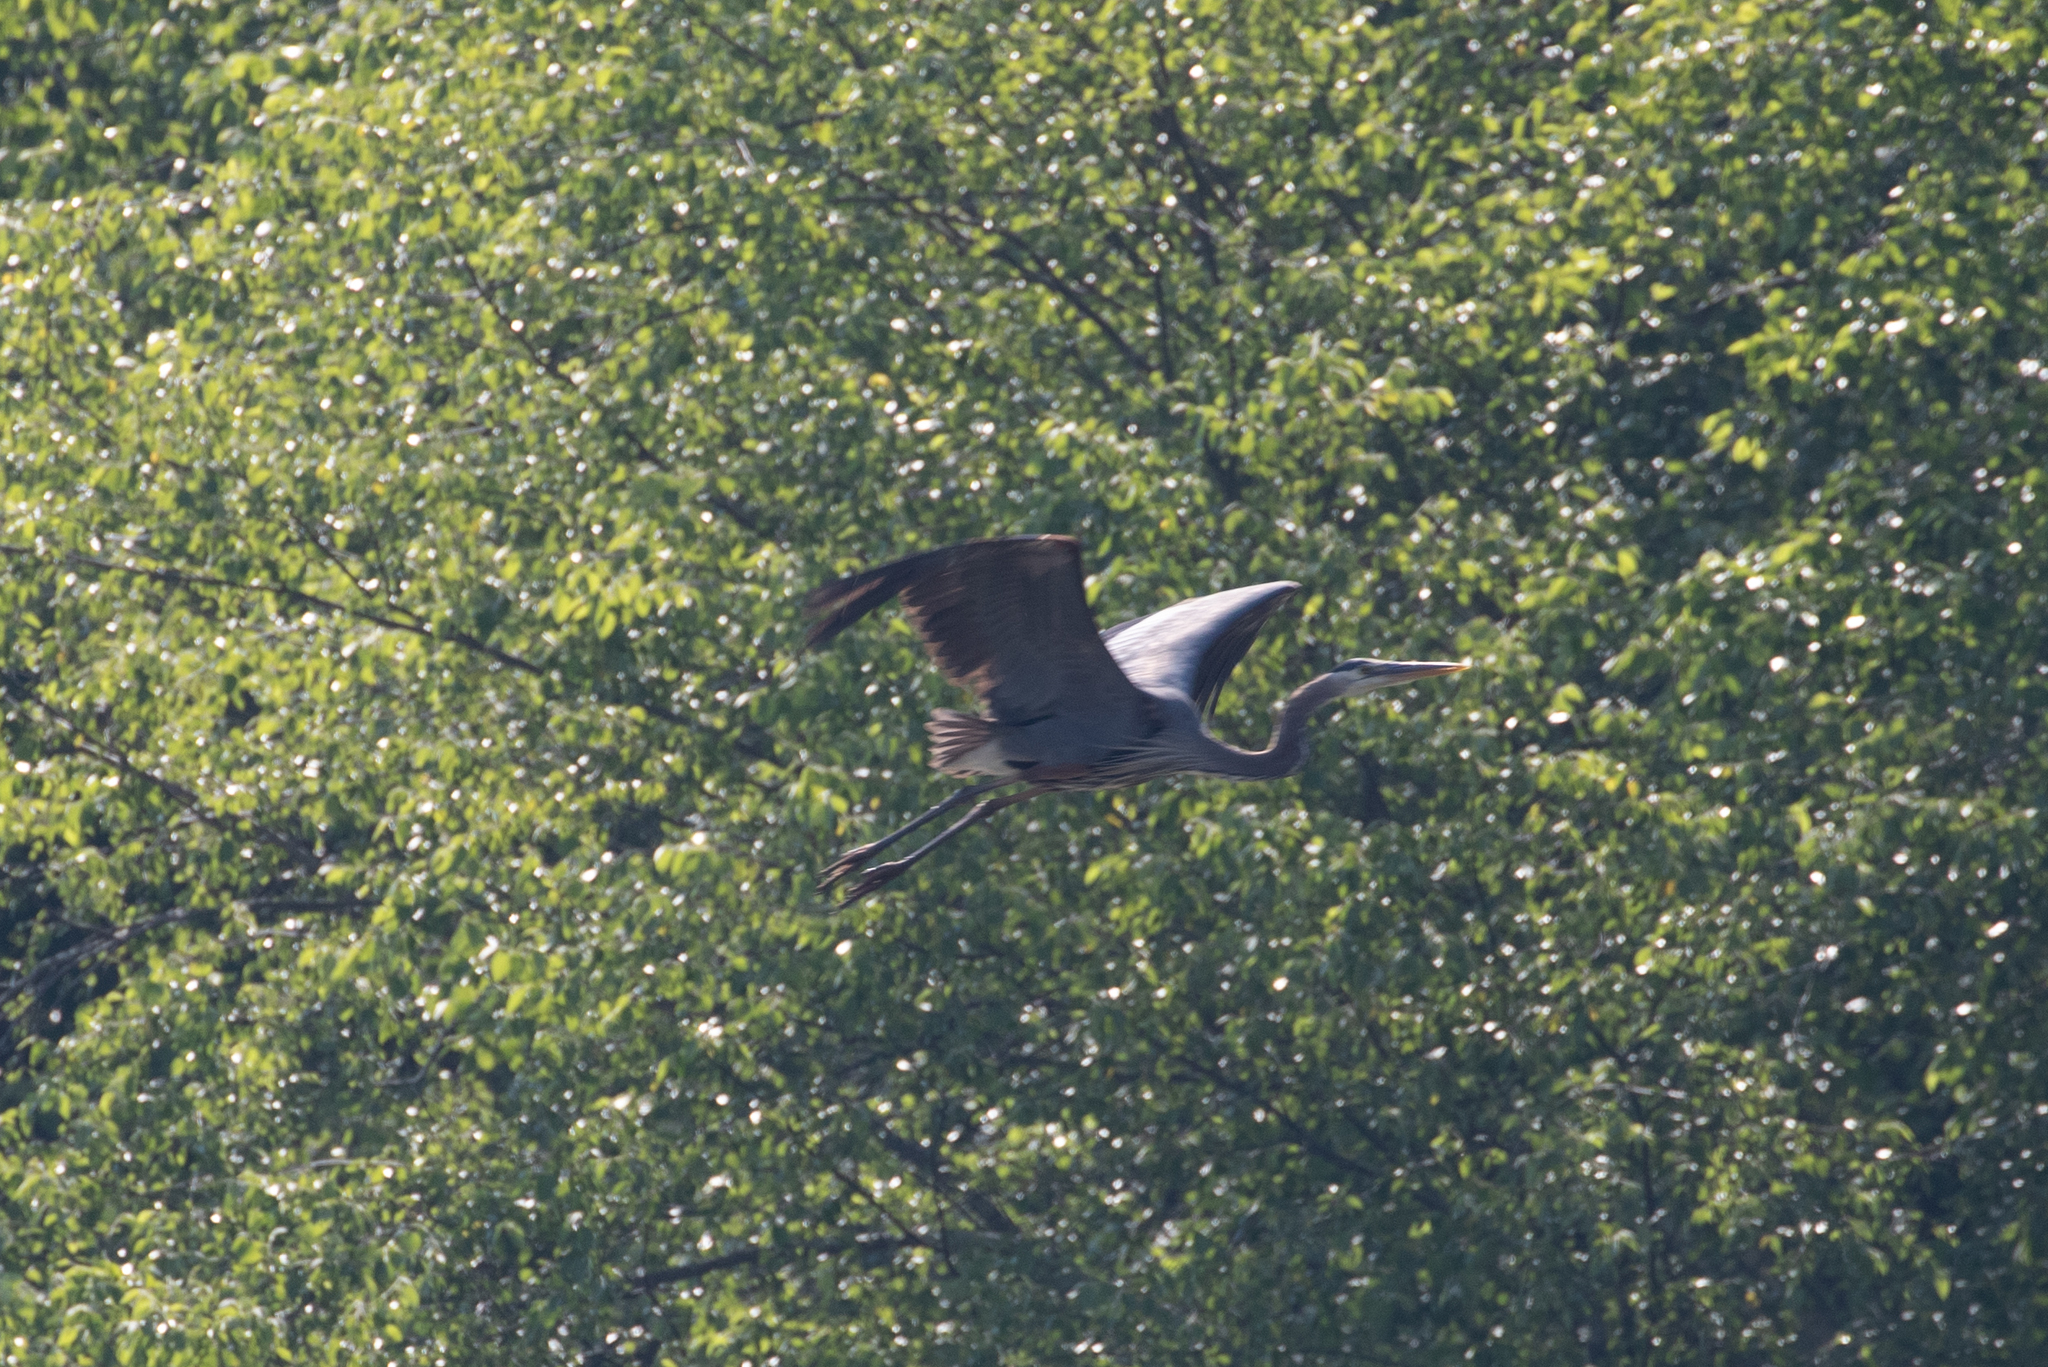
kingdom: Animalia
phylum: Chordata
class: Aves
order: Pelecaniformes
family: Ardeidae
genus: Ardea
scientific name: Ardea herodias
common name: Great blue heron
